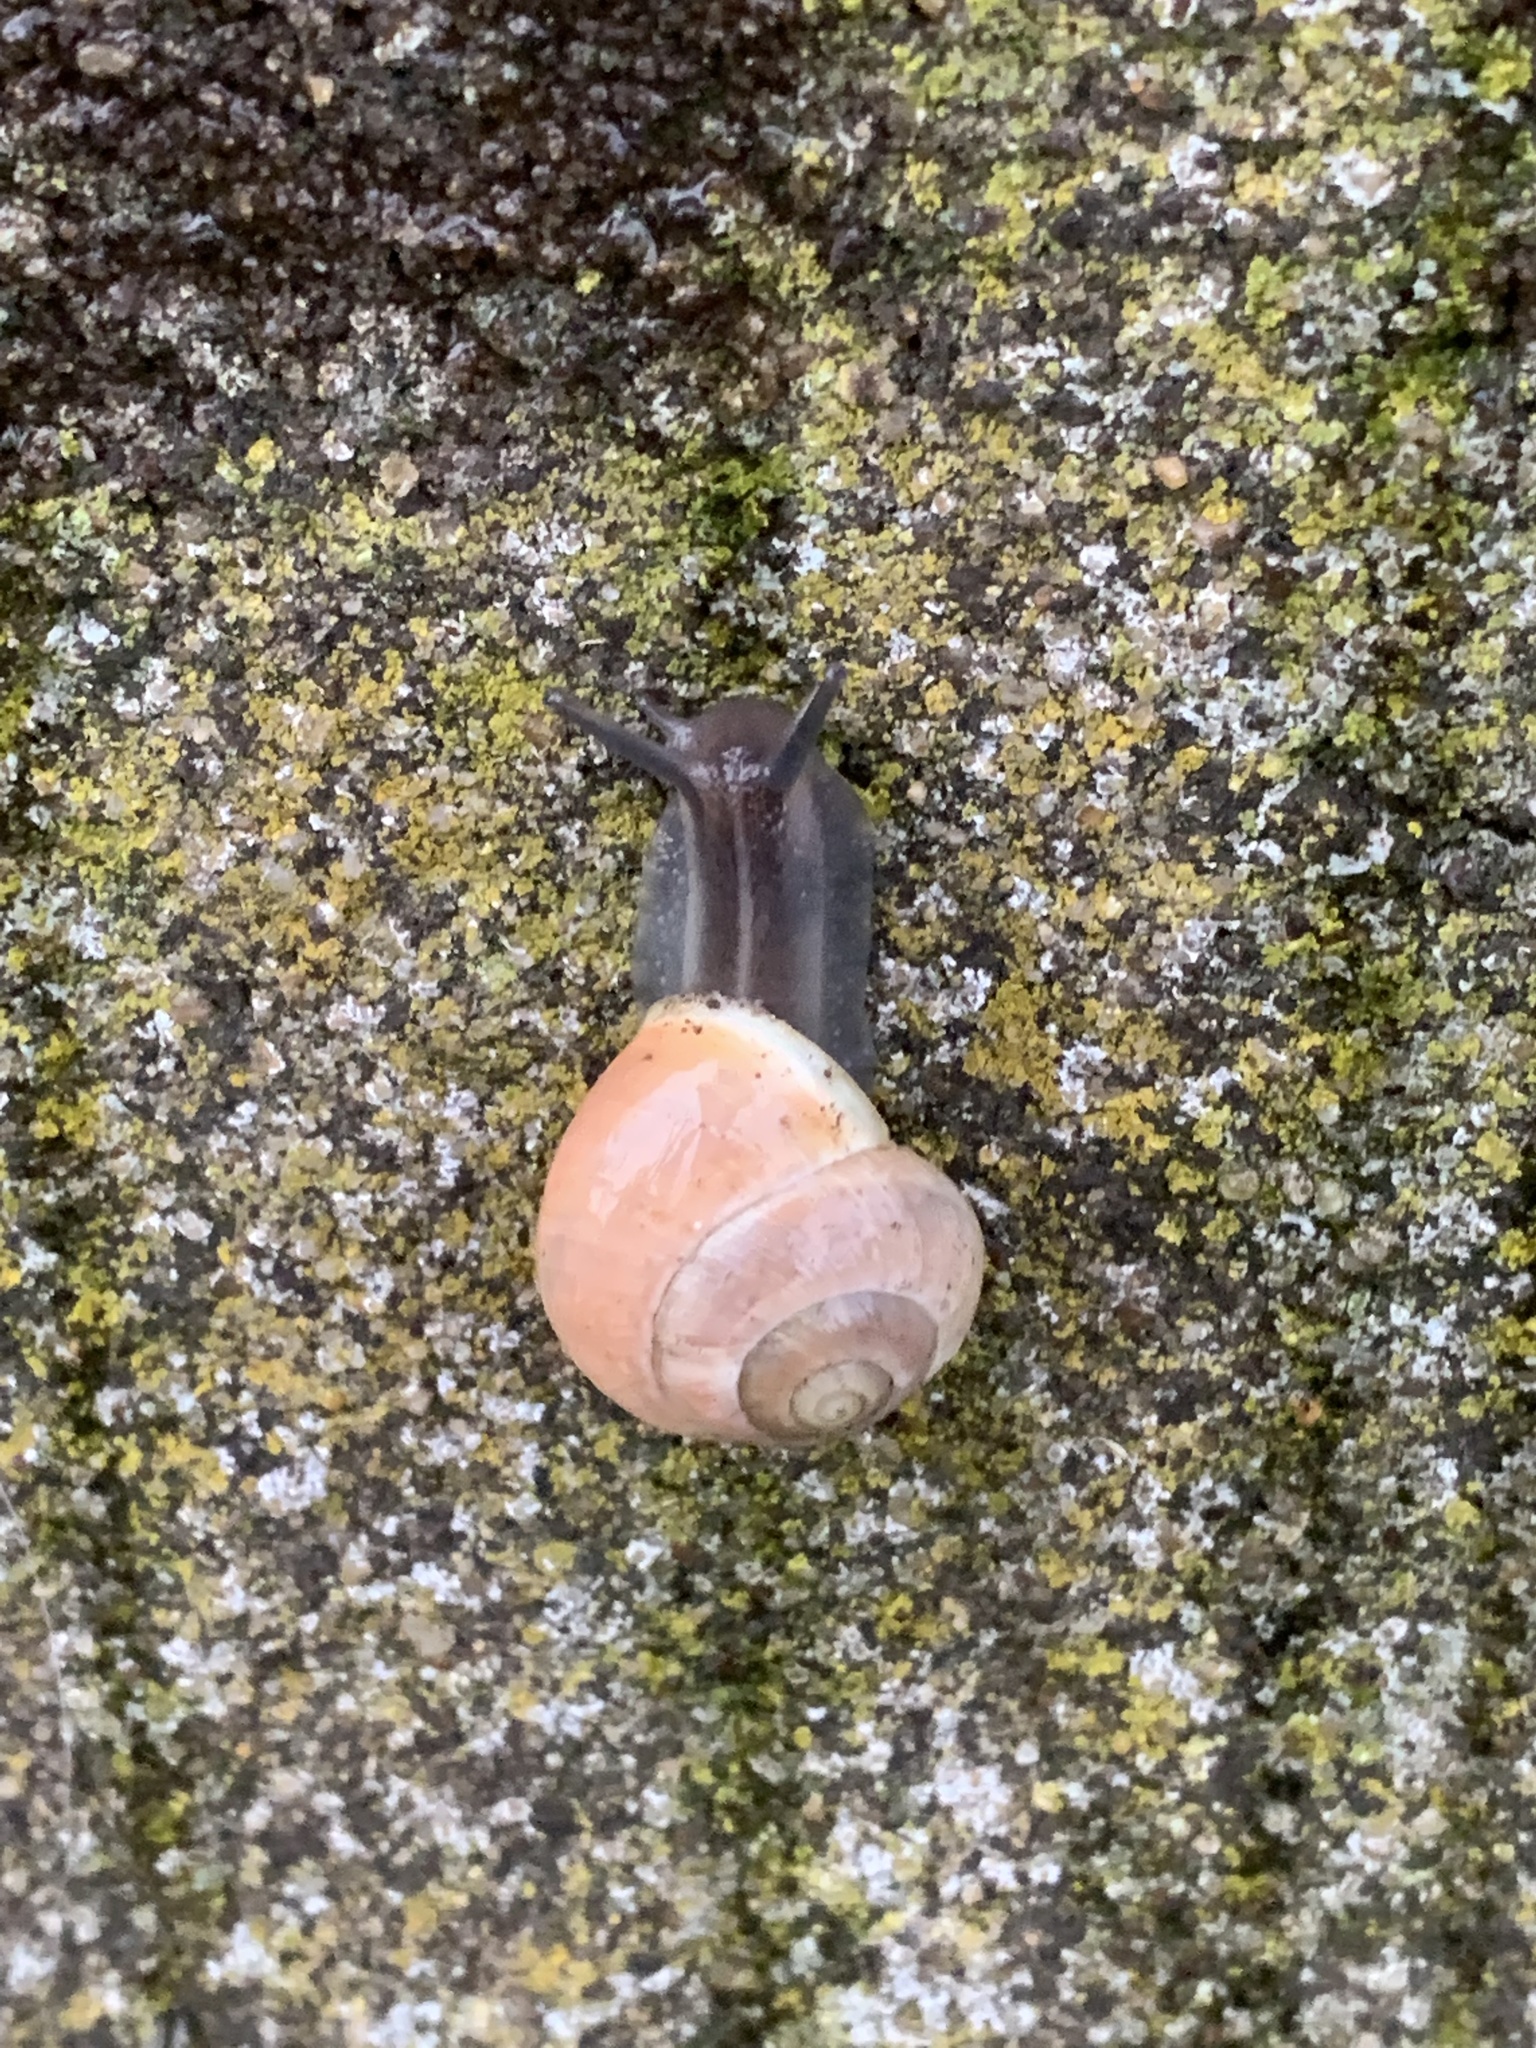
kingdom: Animalia
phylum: Mollusca
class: Gastropoda
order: Stylommatophora
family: Helicidae
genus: Cepaea
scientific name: Cepaea hortensis
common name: White-lip gardensnail
